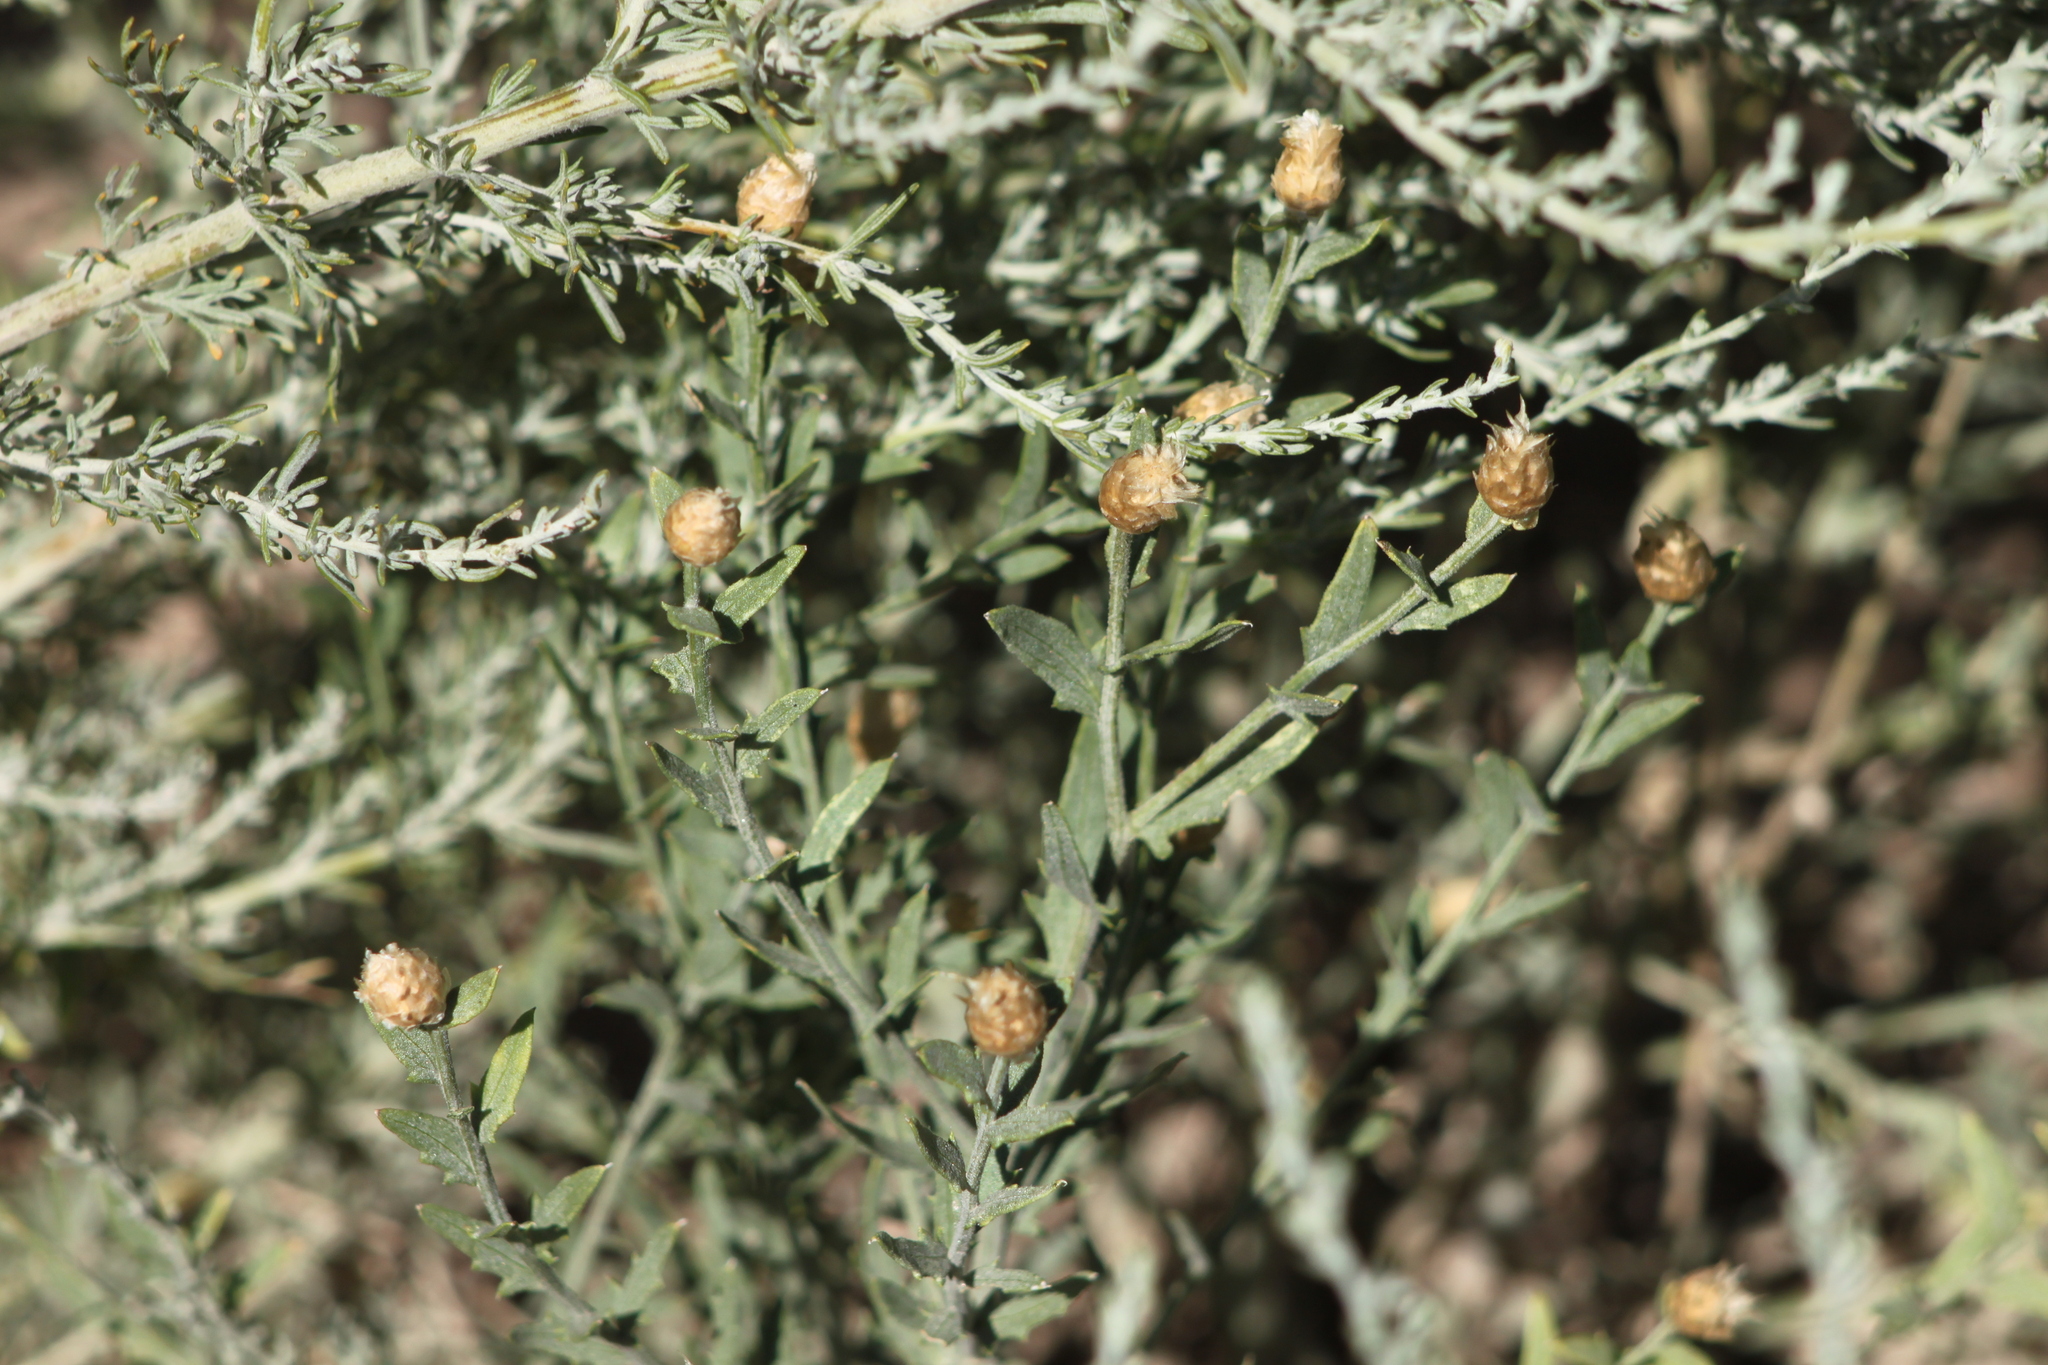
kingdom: Plantae
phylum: Tracheophyta
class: Magnoliopsida
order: Asterales
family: Asteraceae
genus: Leuzea
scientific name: Leuzea repens
